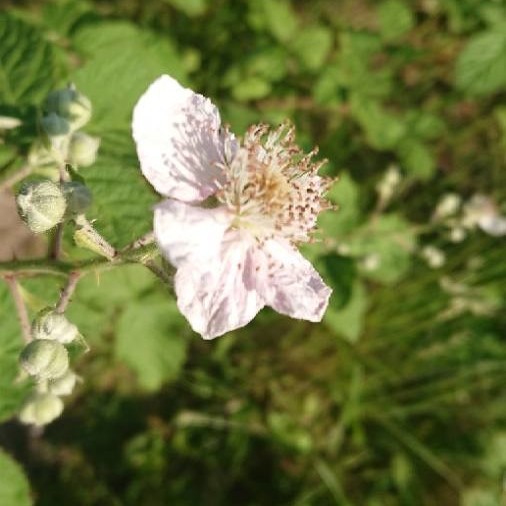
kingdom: Plantae
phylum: Tracheophyta
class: Magnoliopsida
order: Rosales
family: Rosaceae
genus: Rubus
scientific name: Rubus
